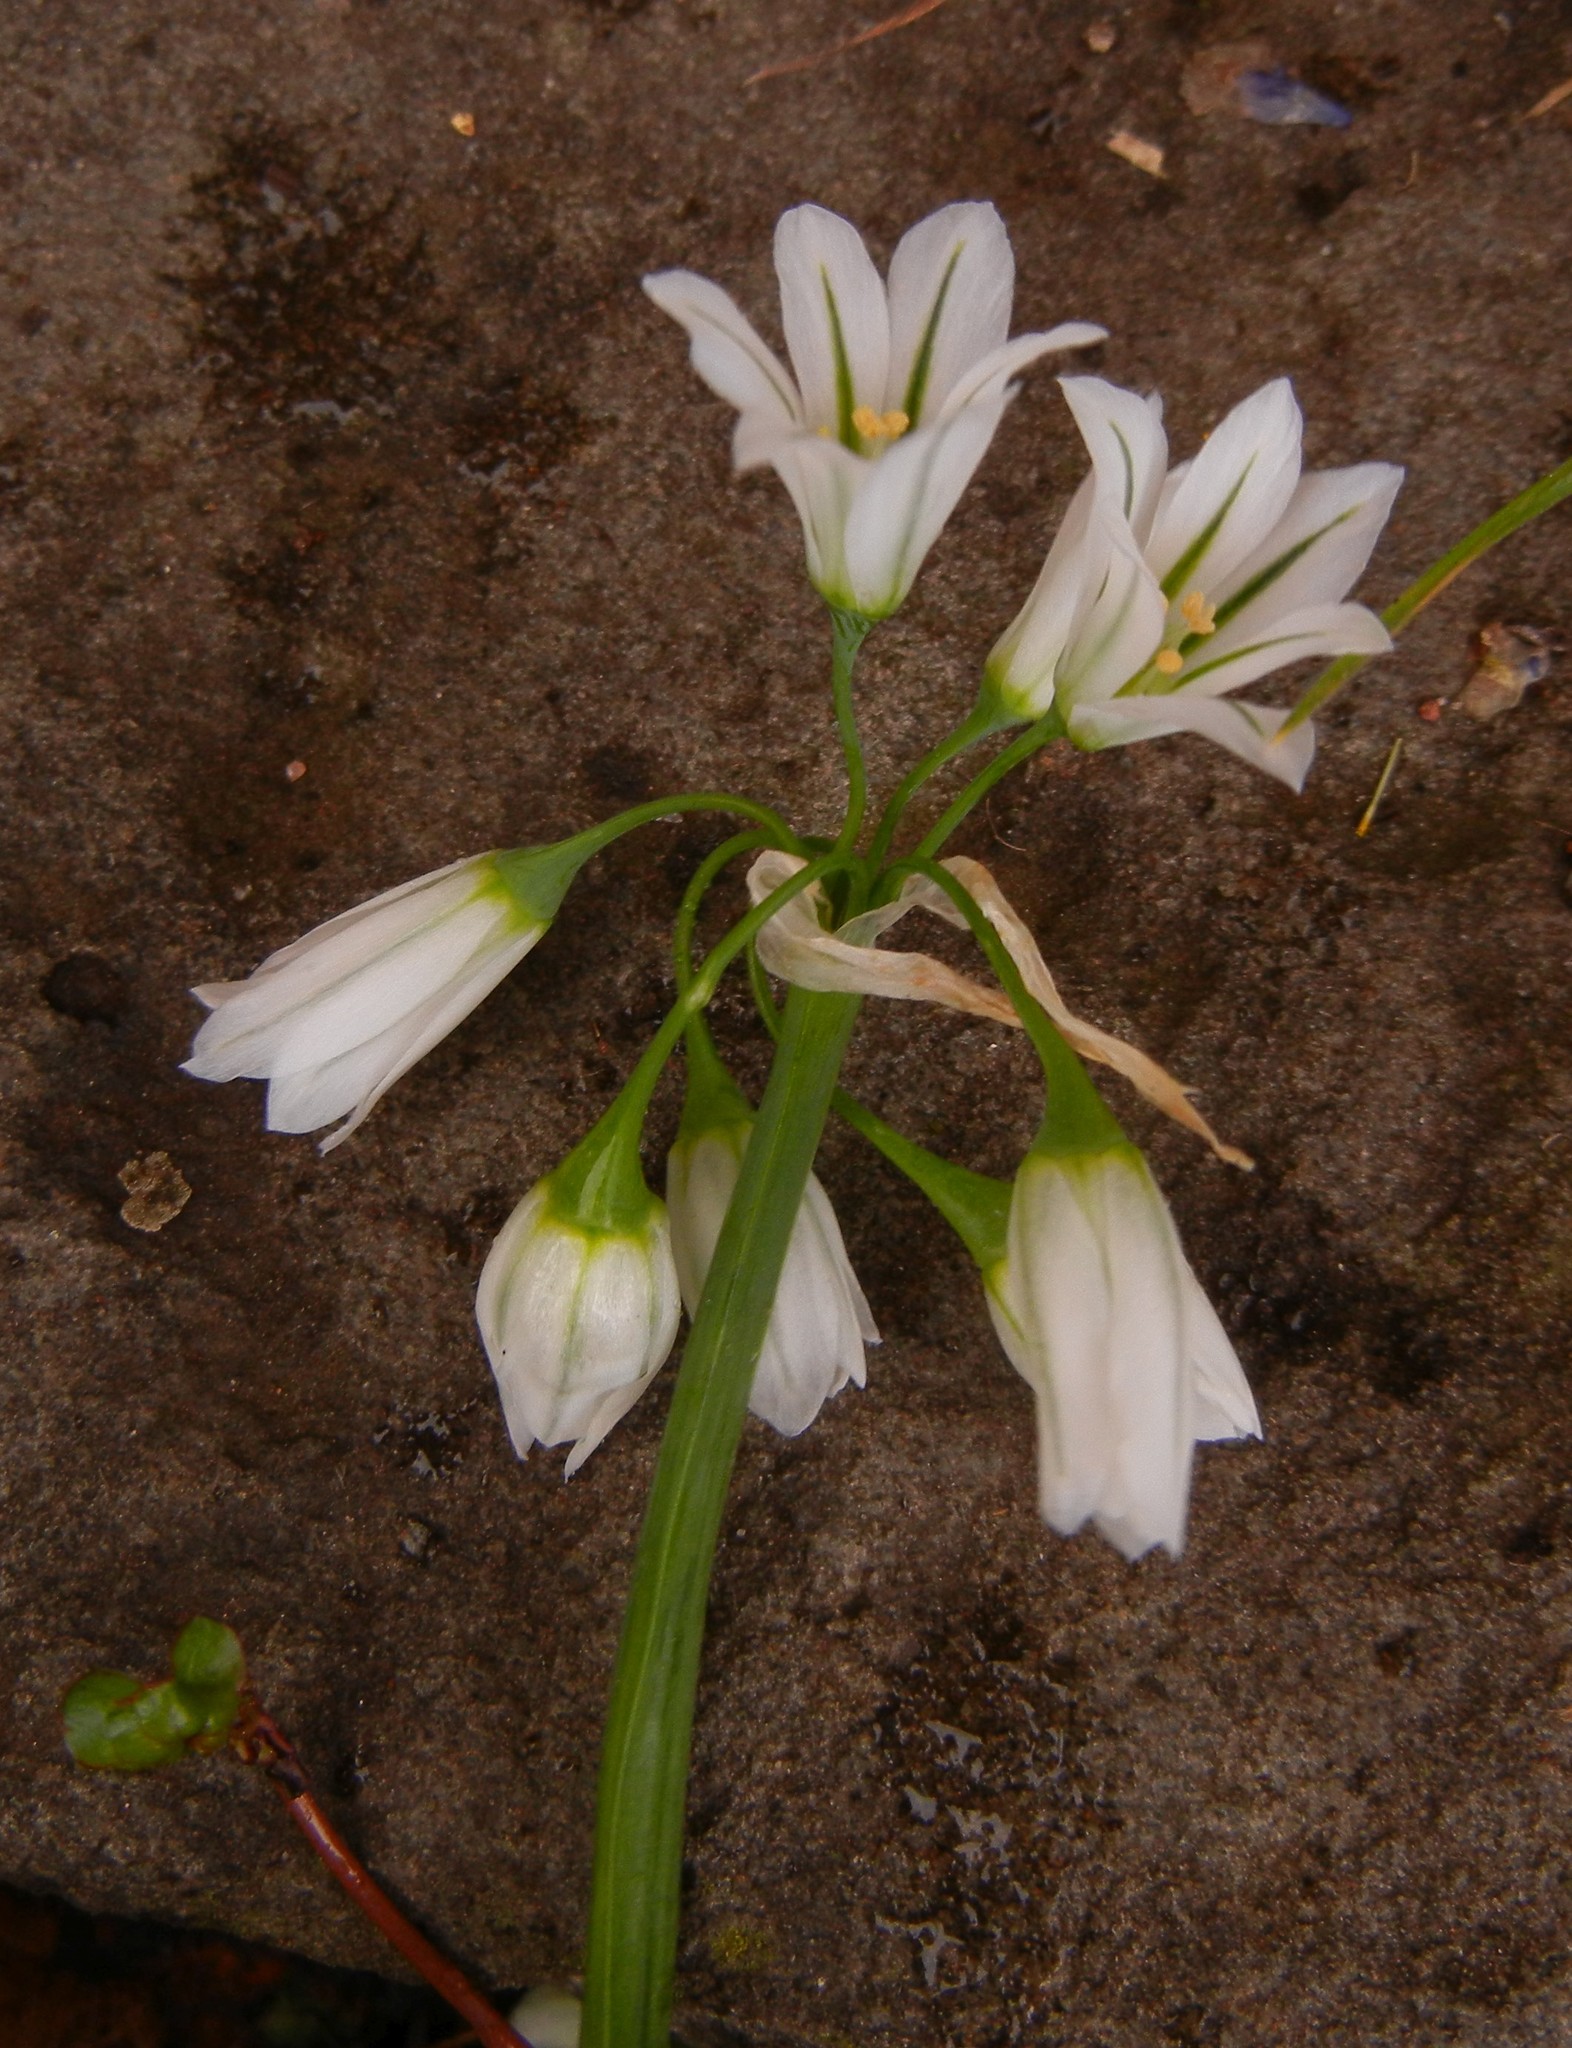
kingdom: Plantae
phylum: Tracheophyta
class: Liliopsida
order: Asparagales
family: Amaryllidaceae
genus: Allium
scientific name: Allium triquetrum
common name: Three-cornered garlic
